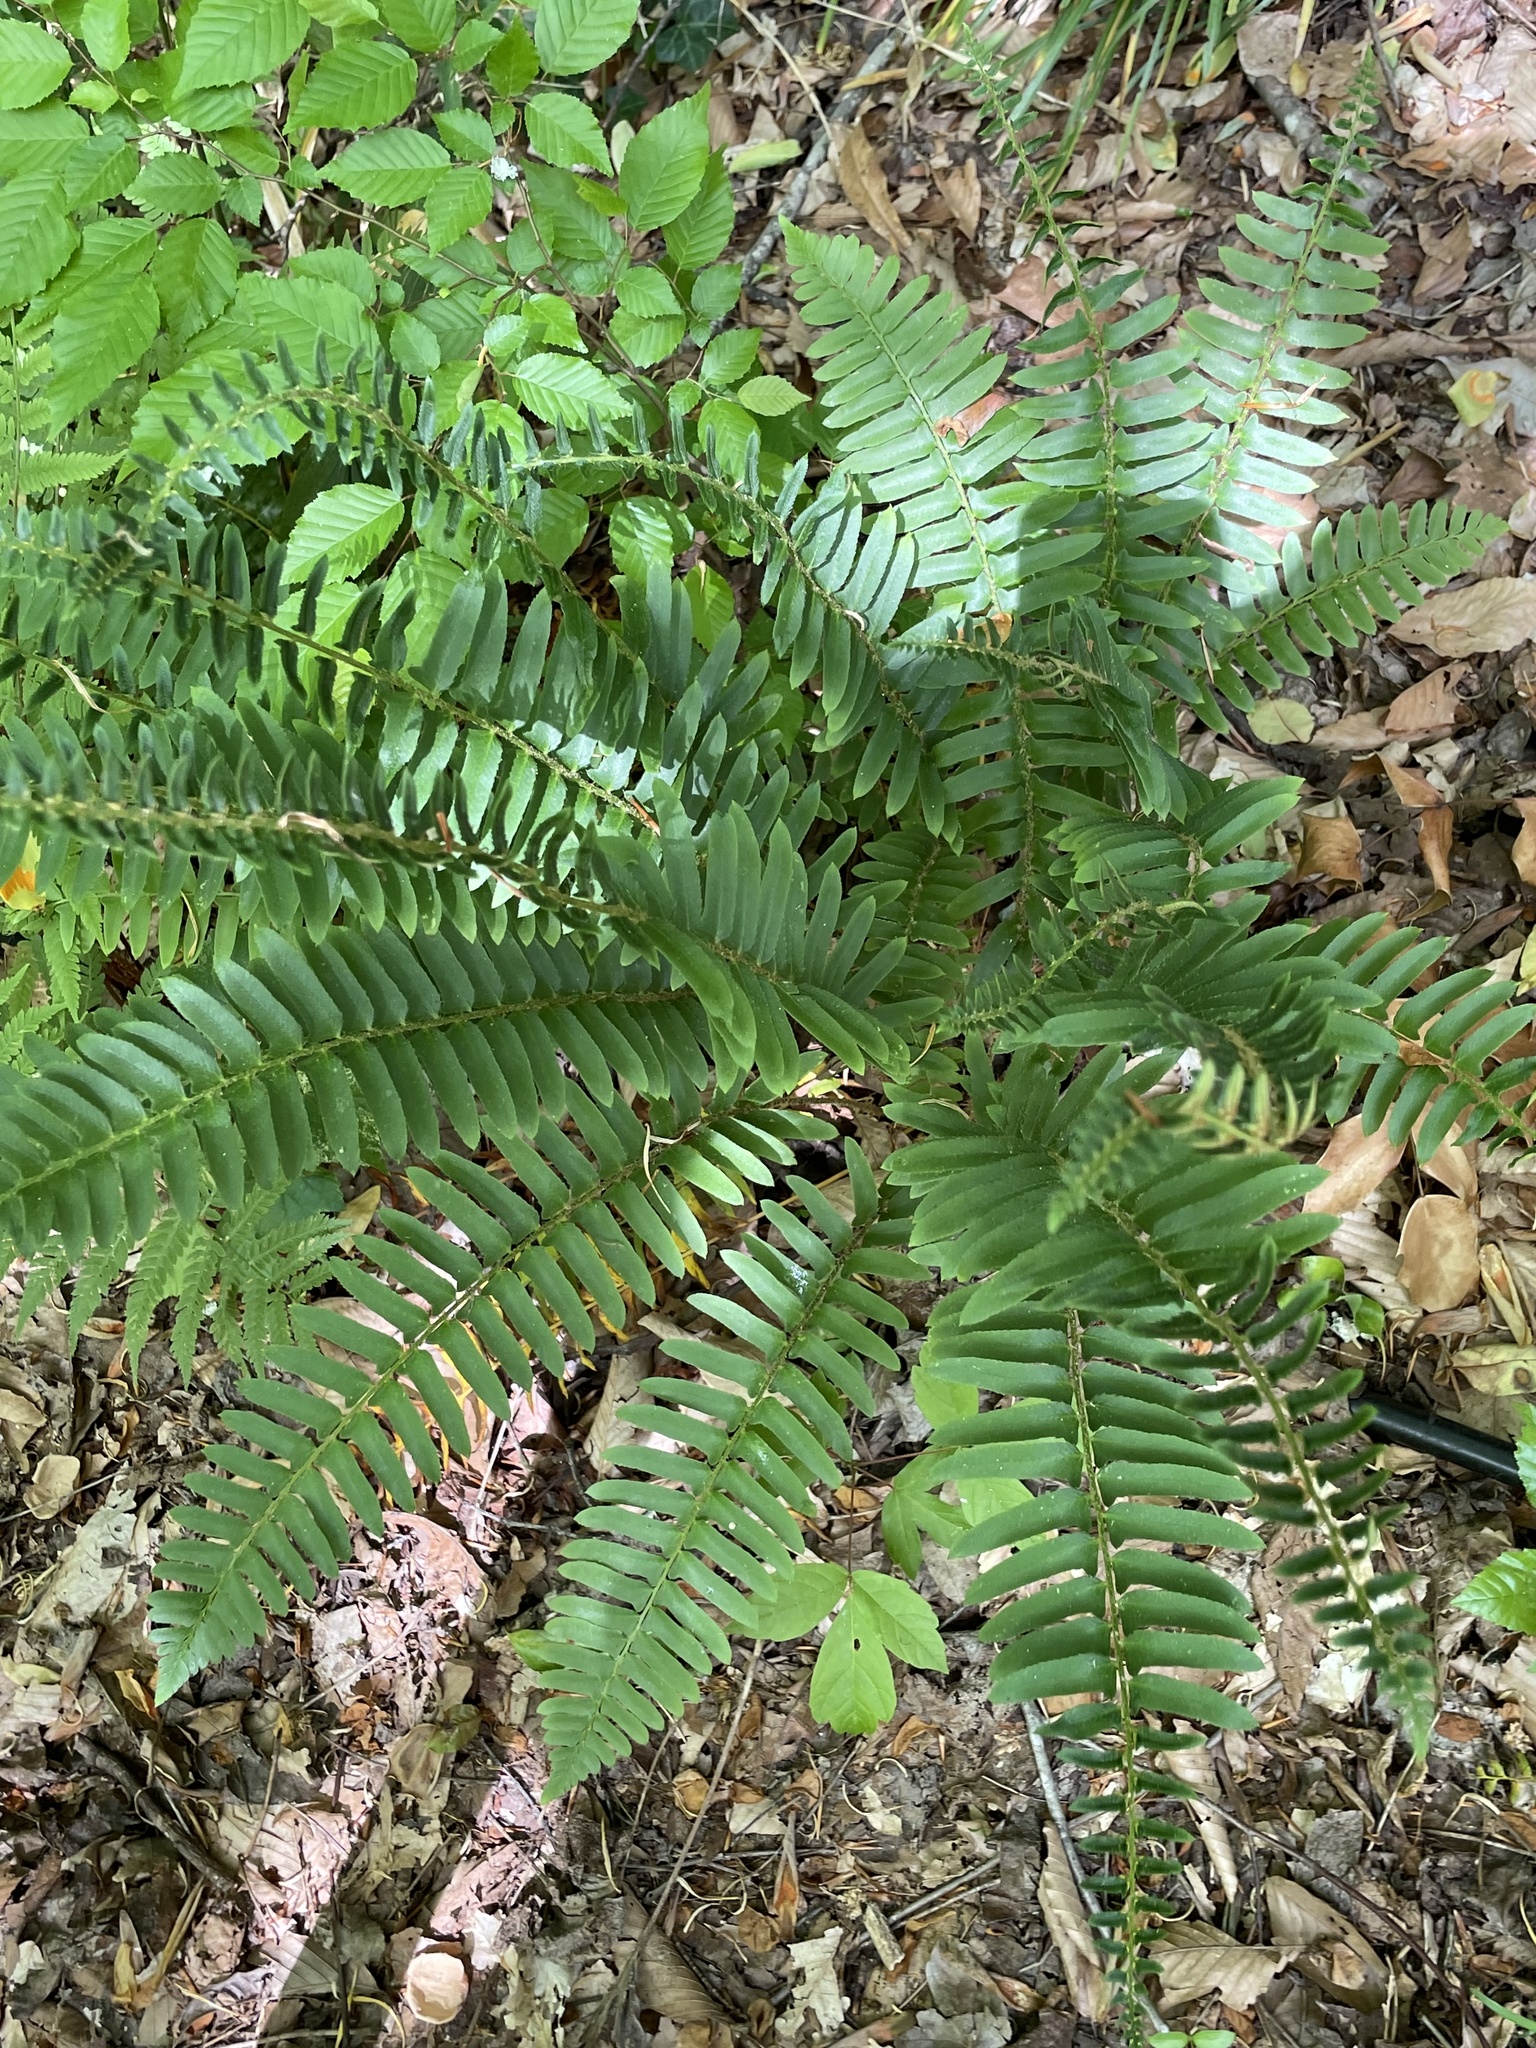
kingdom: Plantae
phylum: Tracheophyta
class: Polypodiopsida
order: Polypodiales
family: Dryopteridaceae
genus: Polystichum
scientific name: Polystichum acrostichoides
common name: Christmas fern
